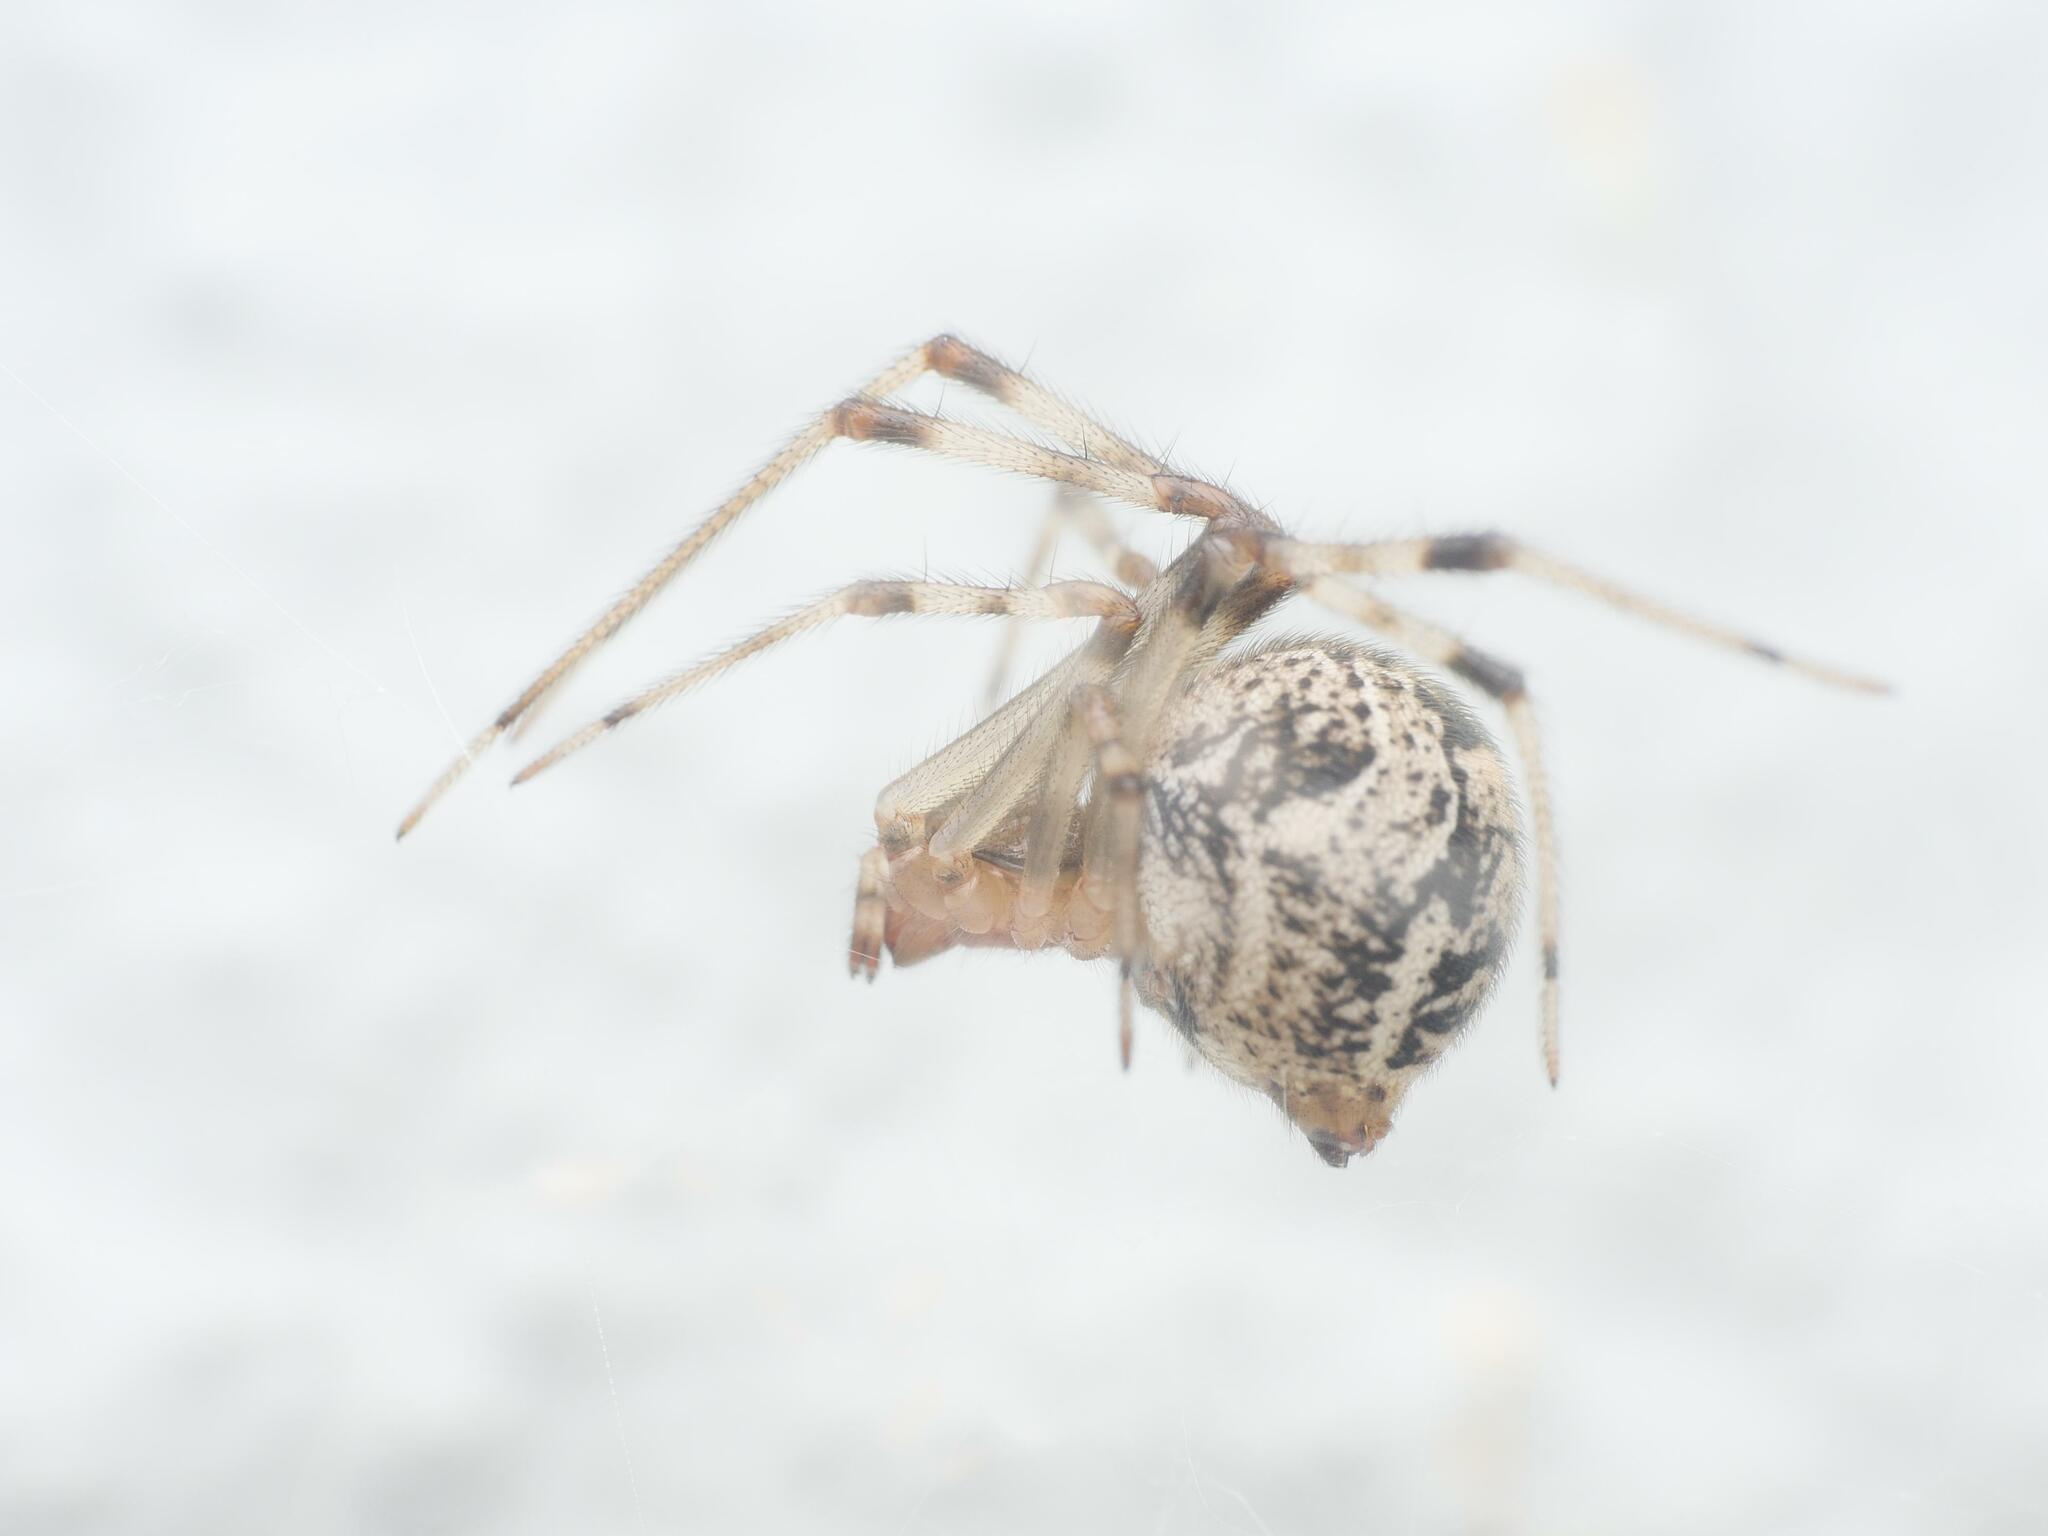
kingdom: Animalia
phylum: Arthropoda
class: Arachnida
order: Araneae
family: Theridiidae
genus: Parasteatoda
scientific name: Parasteatoda tepidariorum
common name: Common house spider
